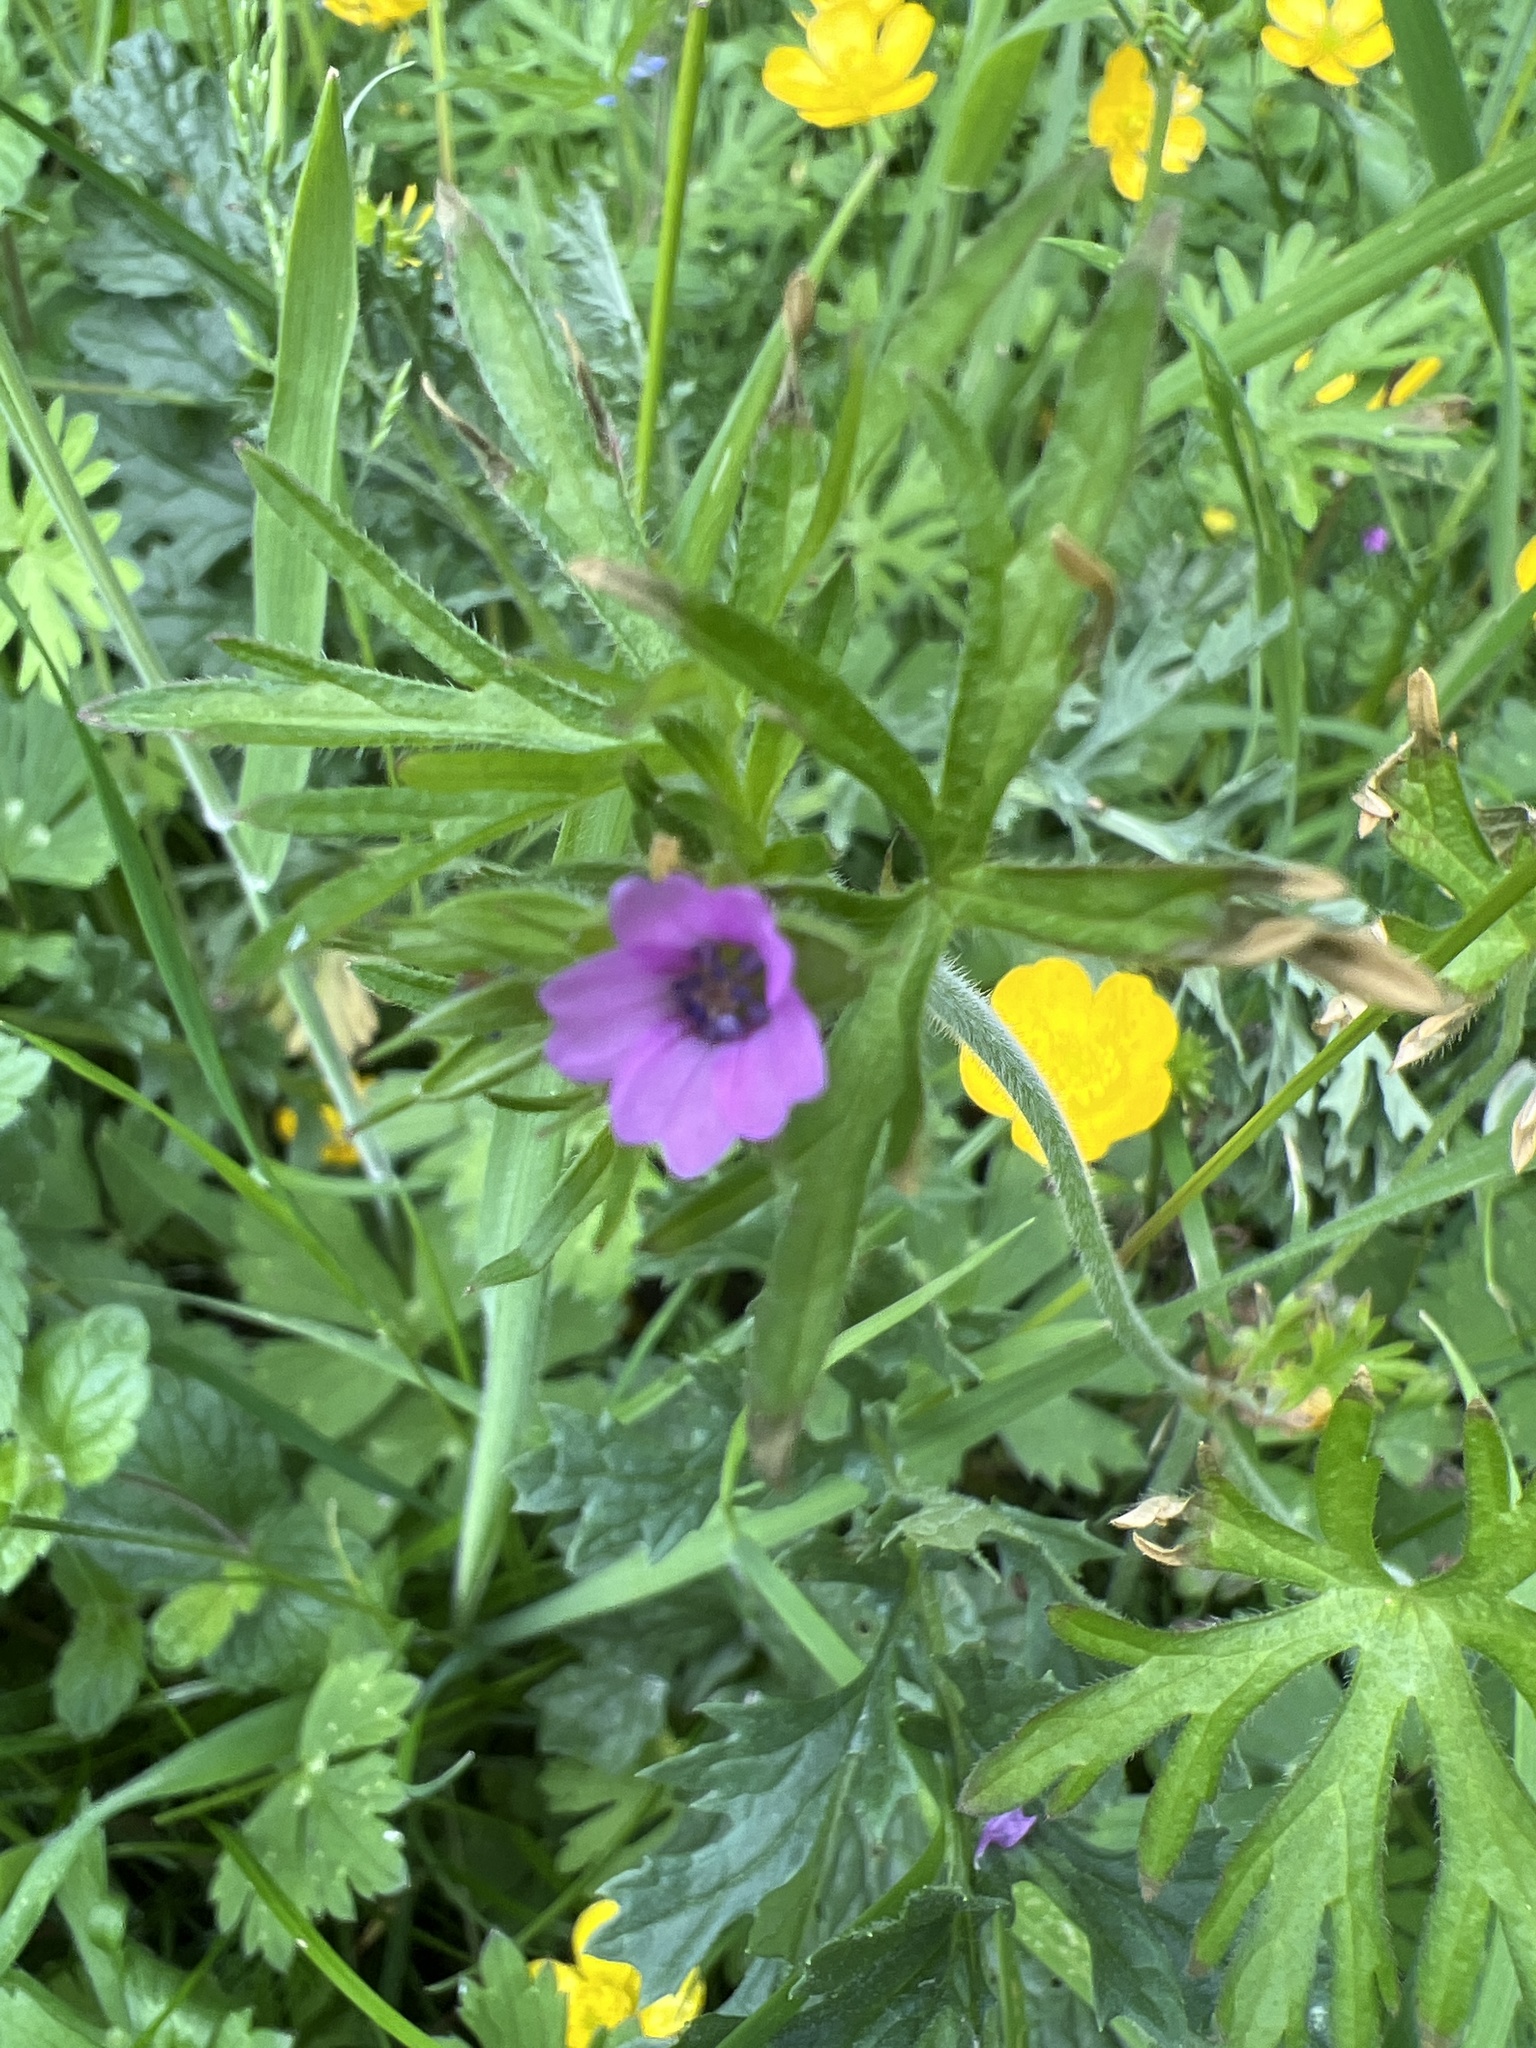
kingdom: Plantae
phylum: Tracheophyta
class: Magnoliopsida
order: Geraniales
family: Geraniaceae
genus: Geranium
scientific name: Geranium dissectum
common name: Cut-leaved crane's-bill
